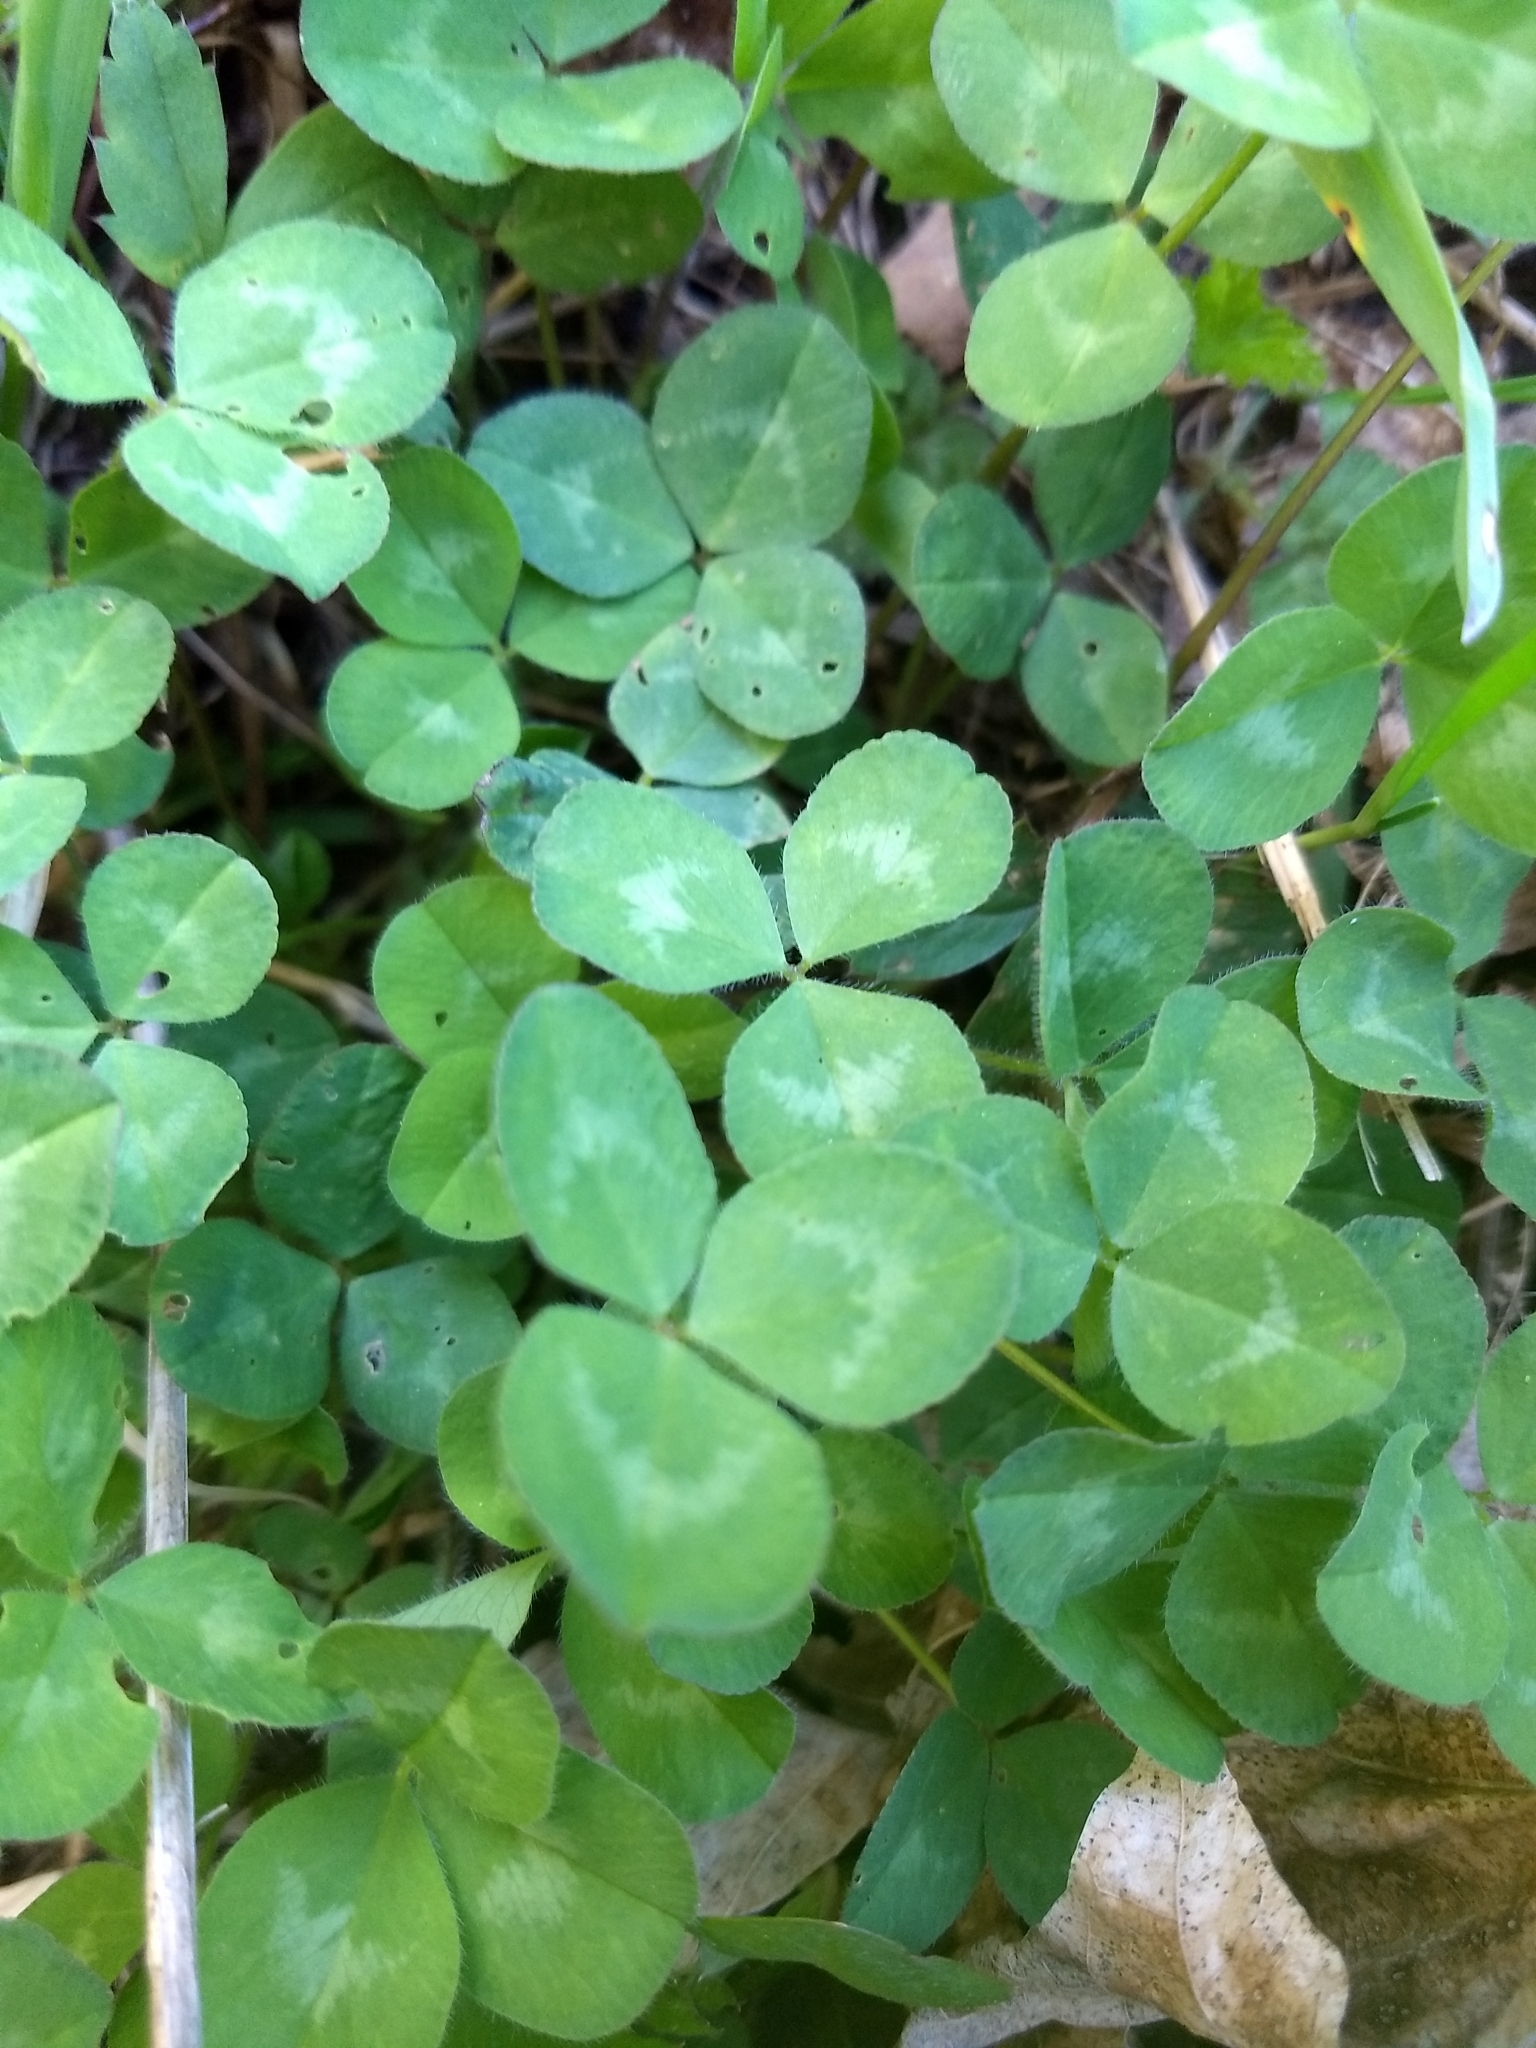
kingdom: Plantae
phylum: Tracheophyta
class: Magnoliopsida
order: Fabales
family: Fabaceae
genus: Trifolium
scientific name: Trifolium pratense
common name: Red clover
